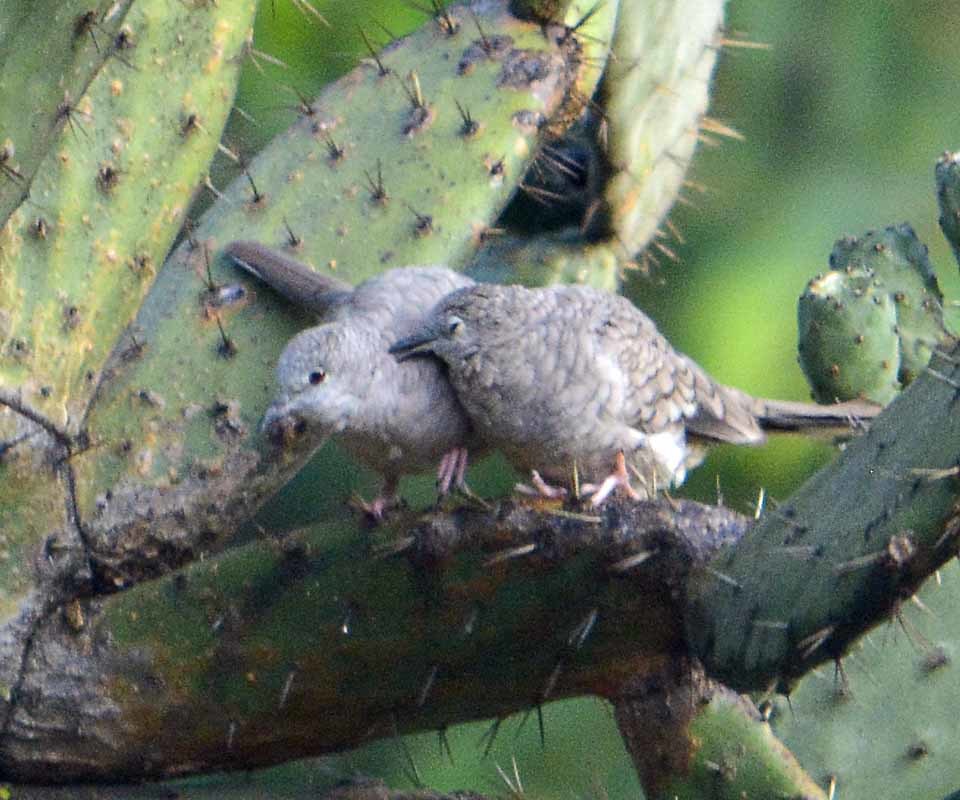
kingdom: Animalia
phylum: Chordata
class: Aves
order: Columbiformes
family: Columbidae
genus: Columbina
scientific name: Columbina inca
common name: Inca dove
